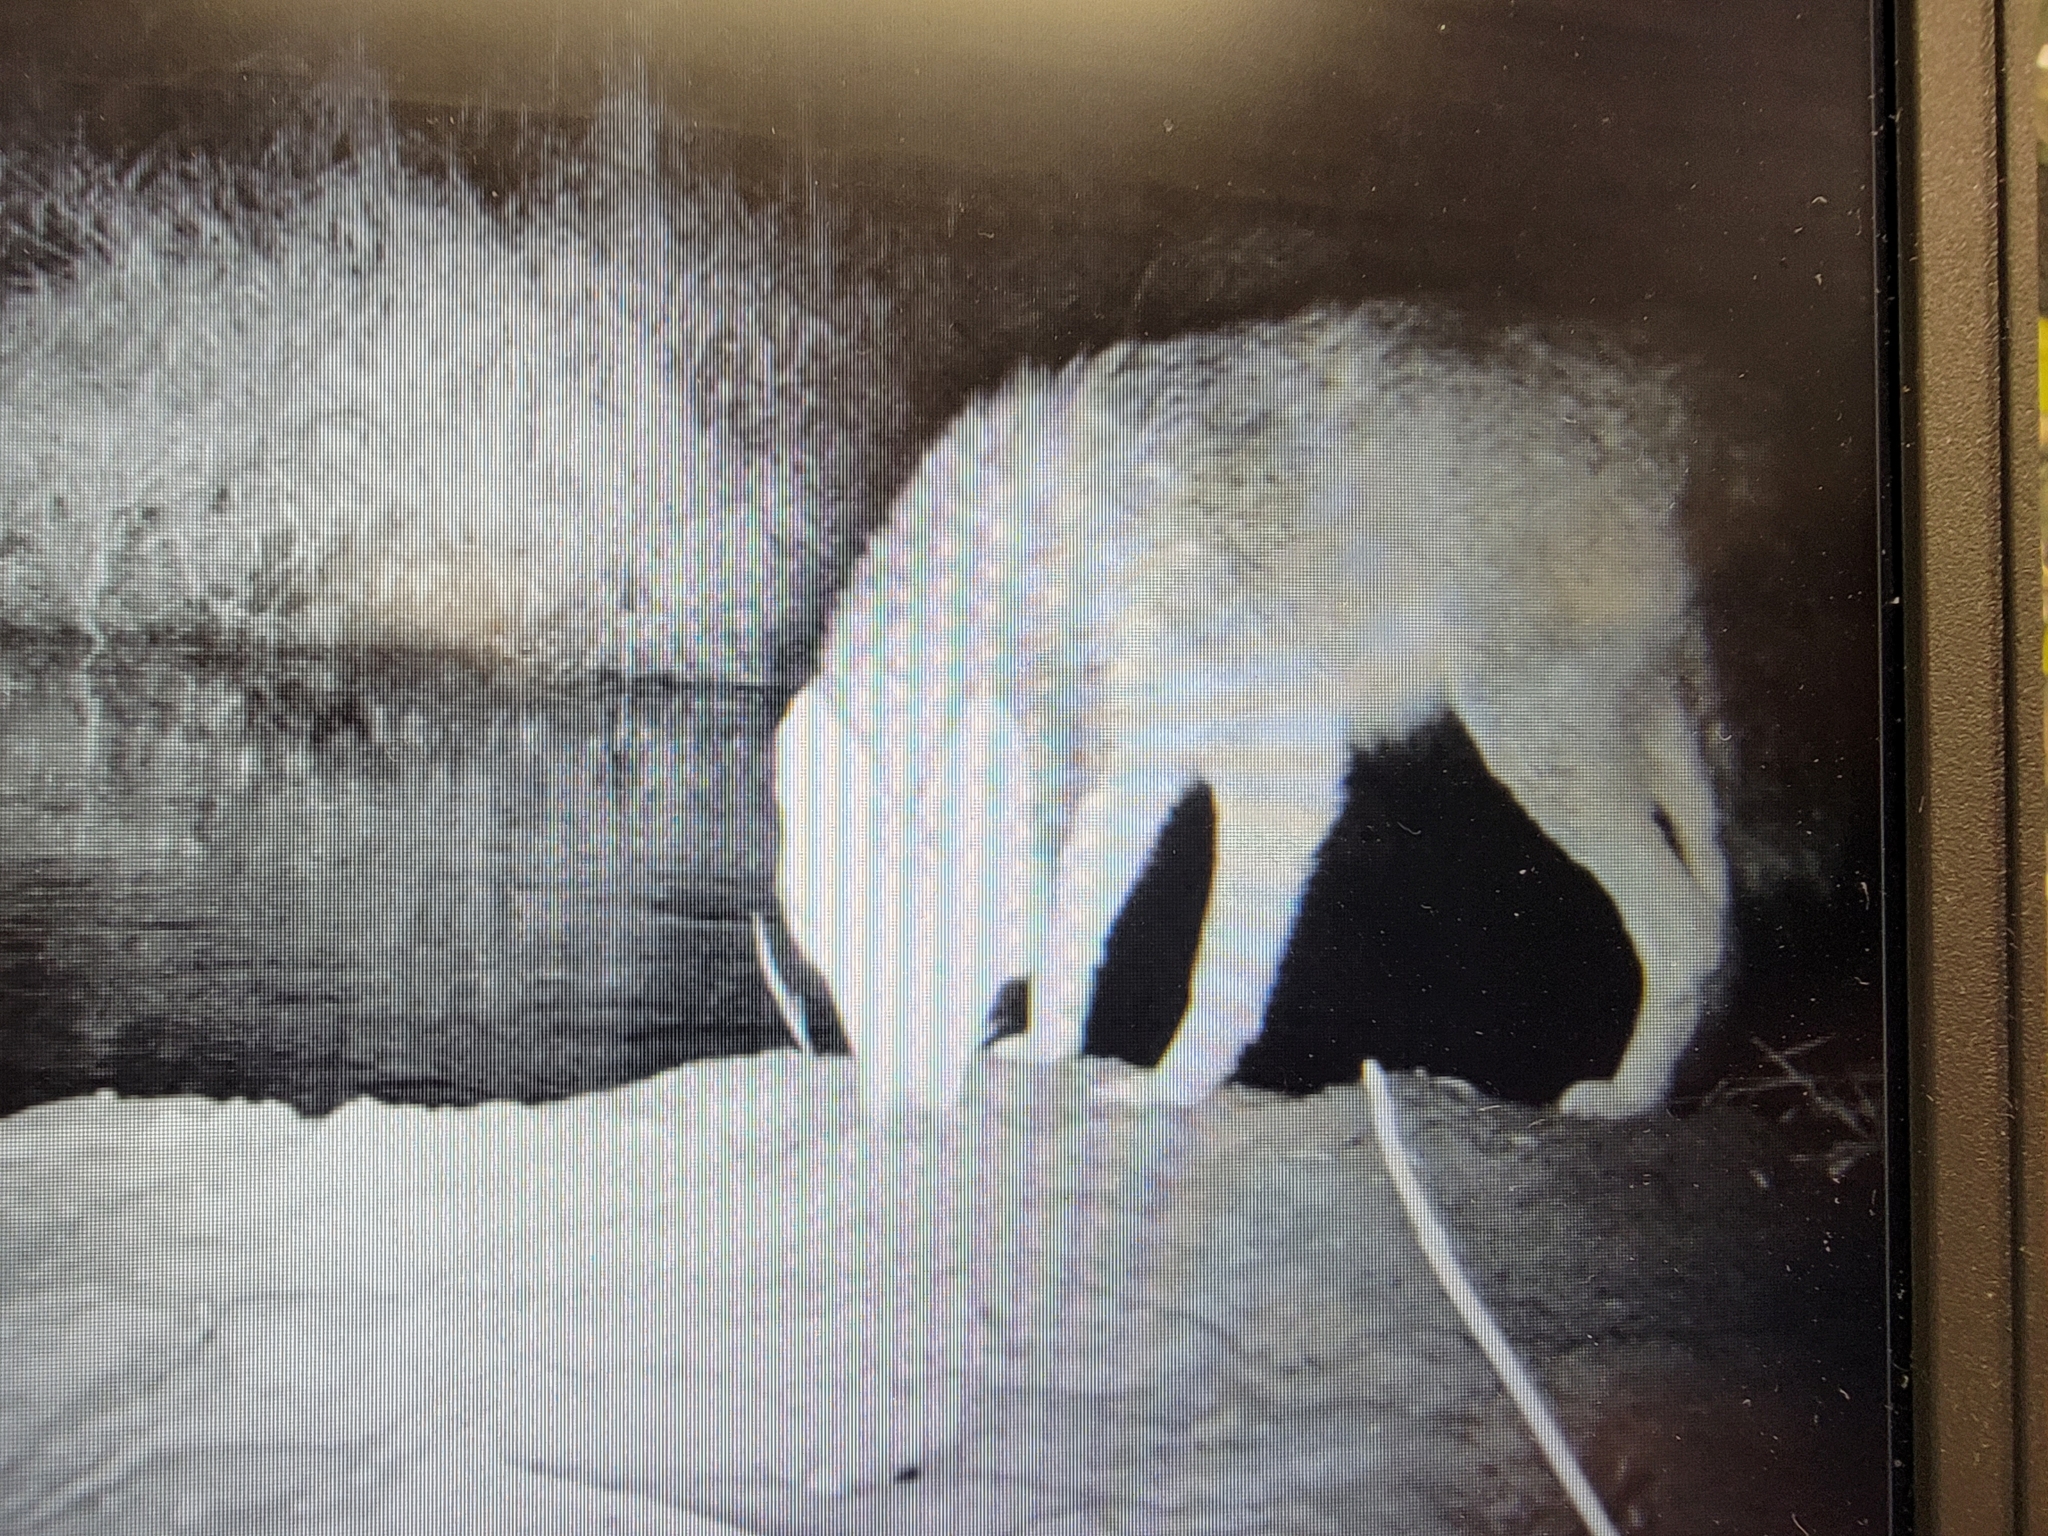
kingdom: Animalia
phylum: Chordata
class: Mammalia
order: Carnivora
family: Canidae
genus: Canis
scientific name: Canis latrans
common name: Coyote
